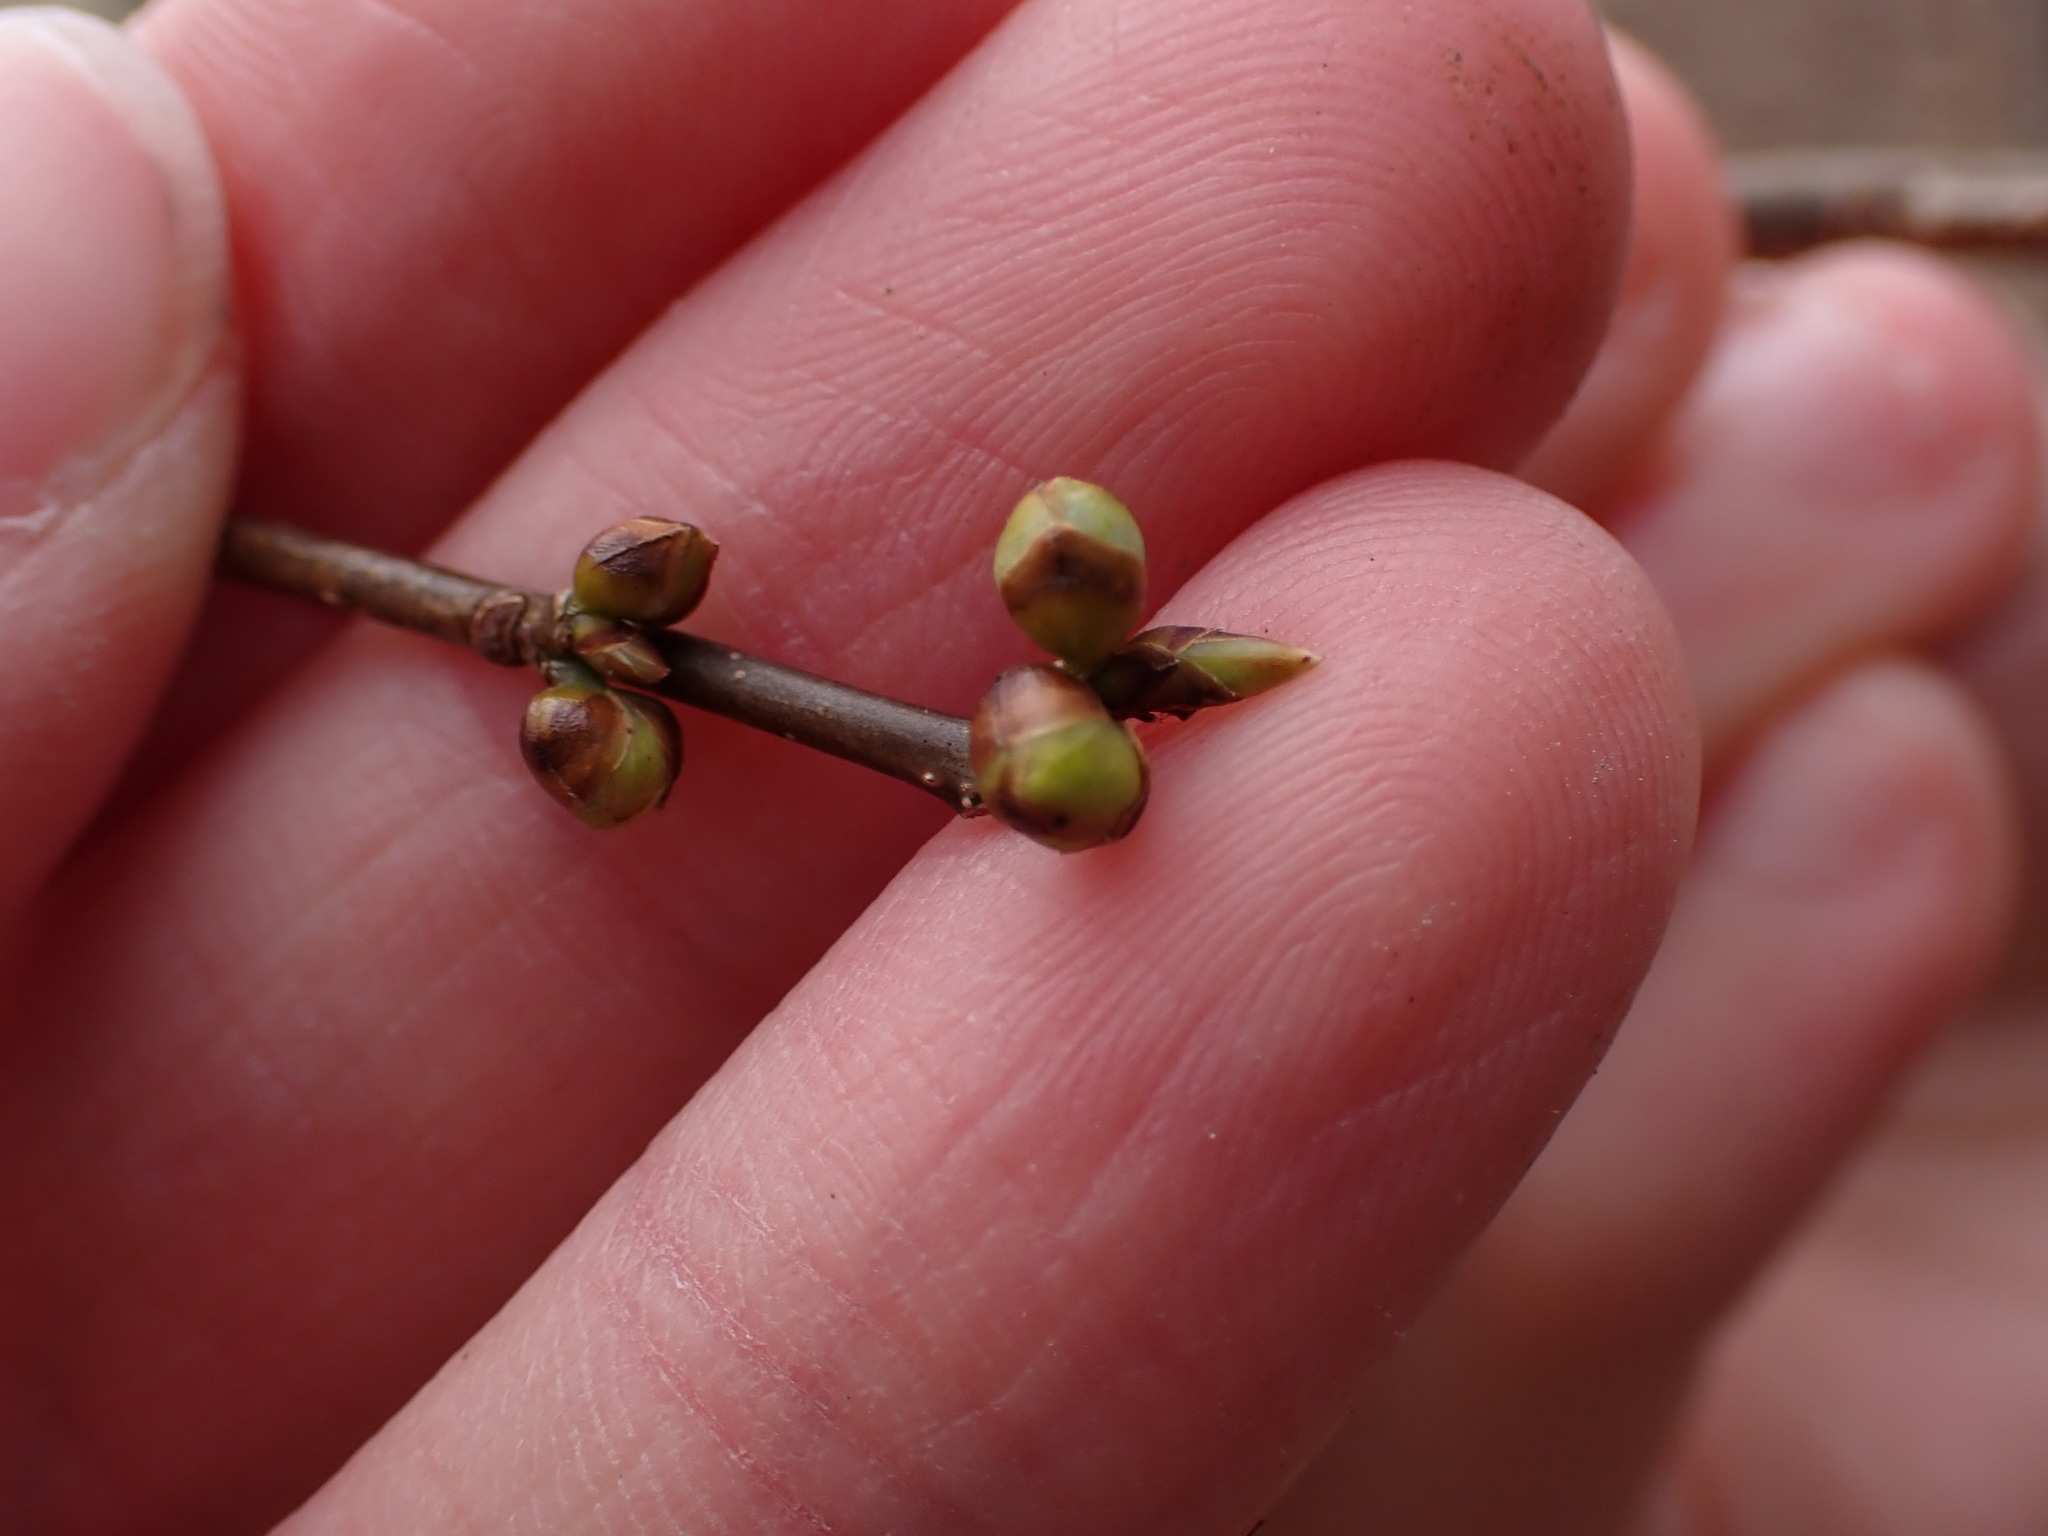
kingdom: Plantae
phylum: Tracheophyta
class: Magnoliopsida
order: Laurales
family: Lauraceae
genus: Lindera
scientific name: Lindera benzoin
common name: Spicebush
